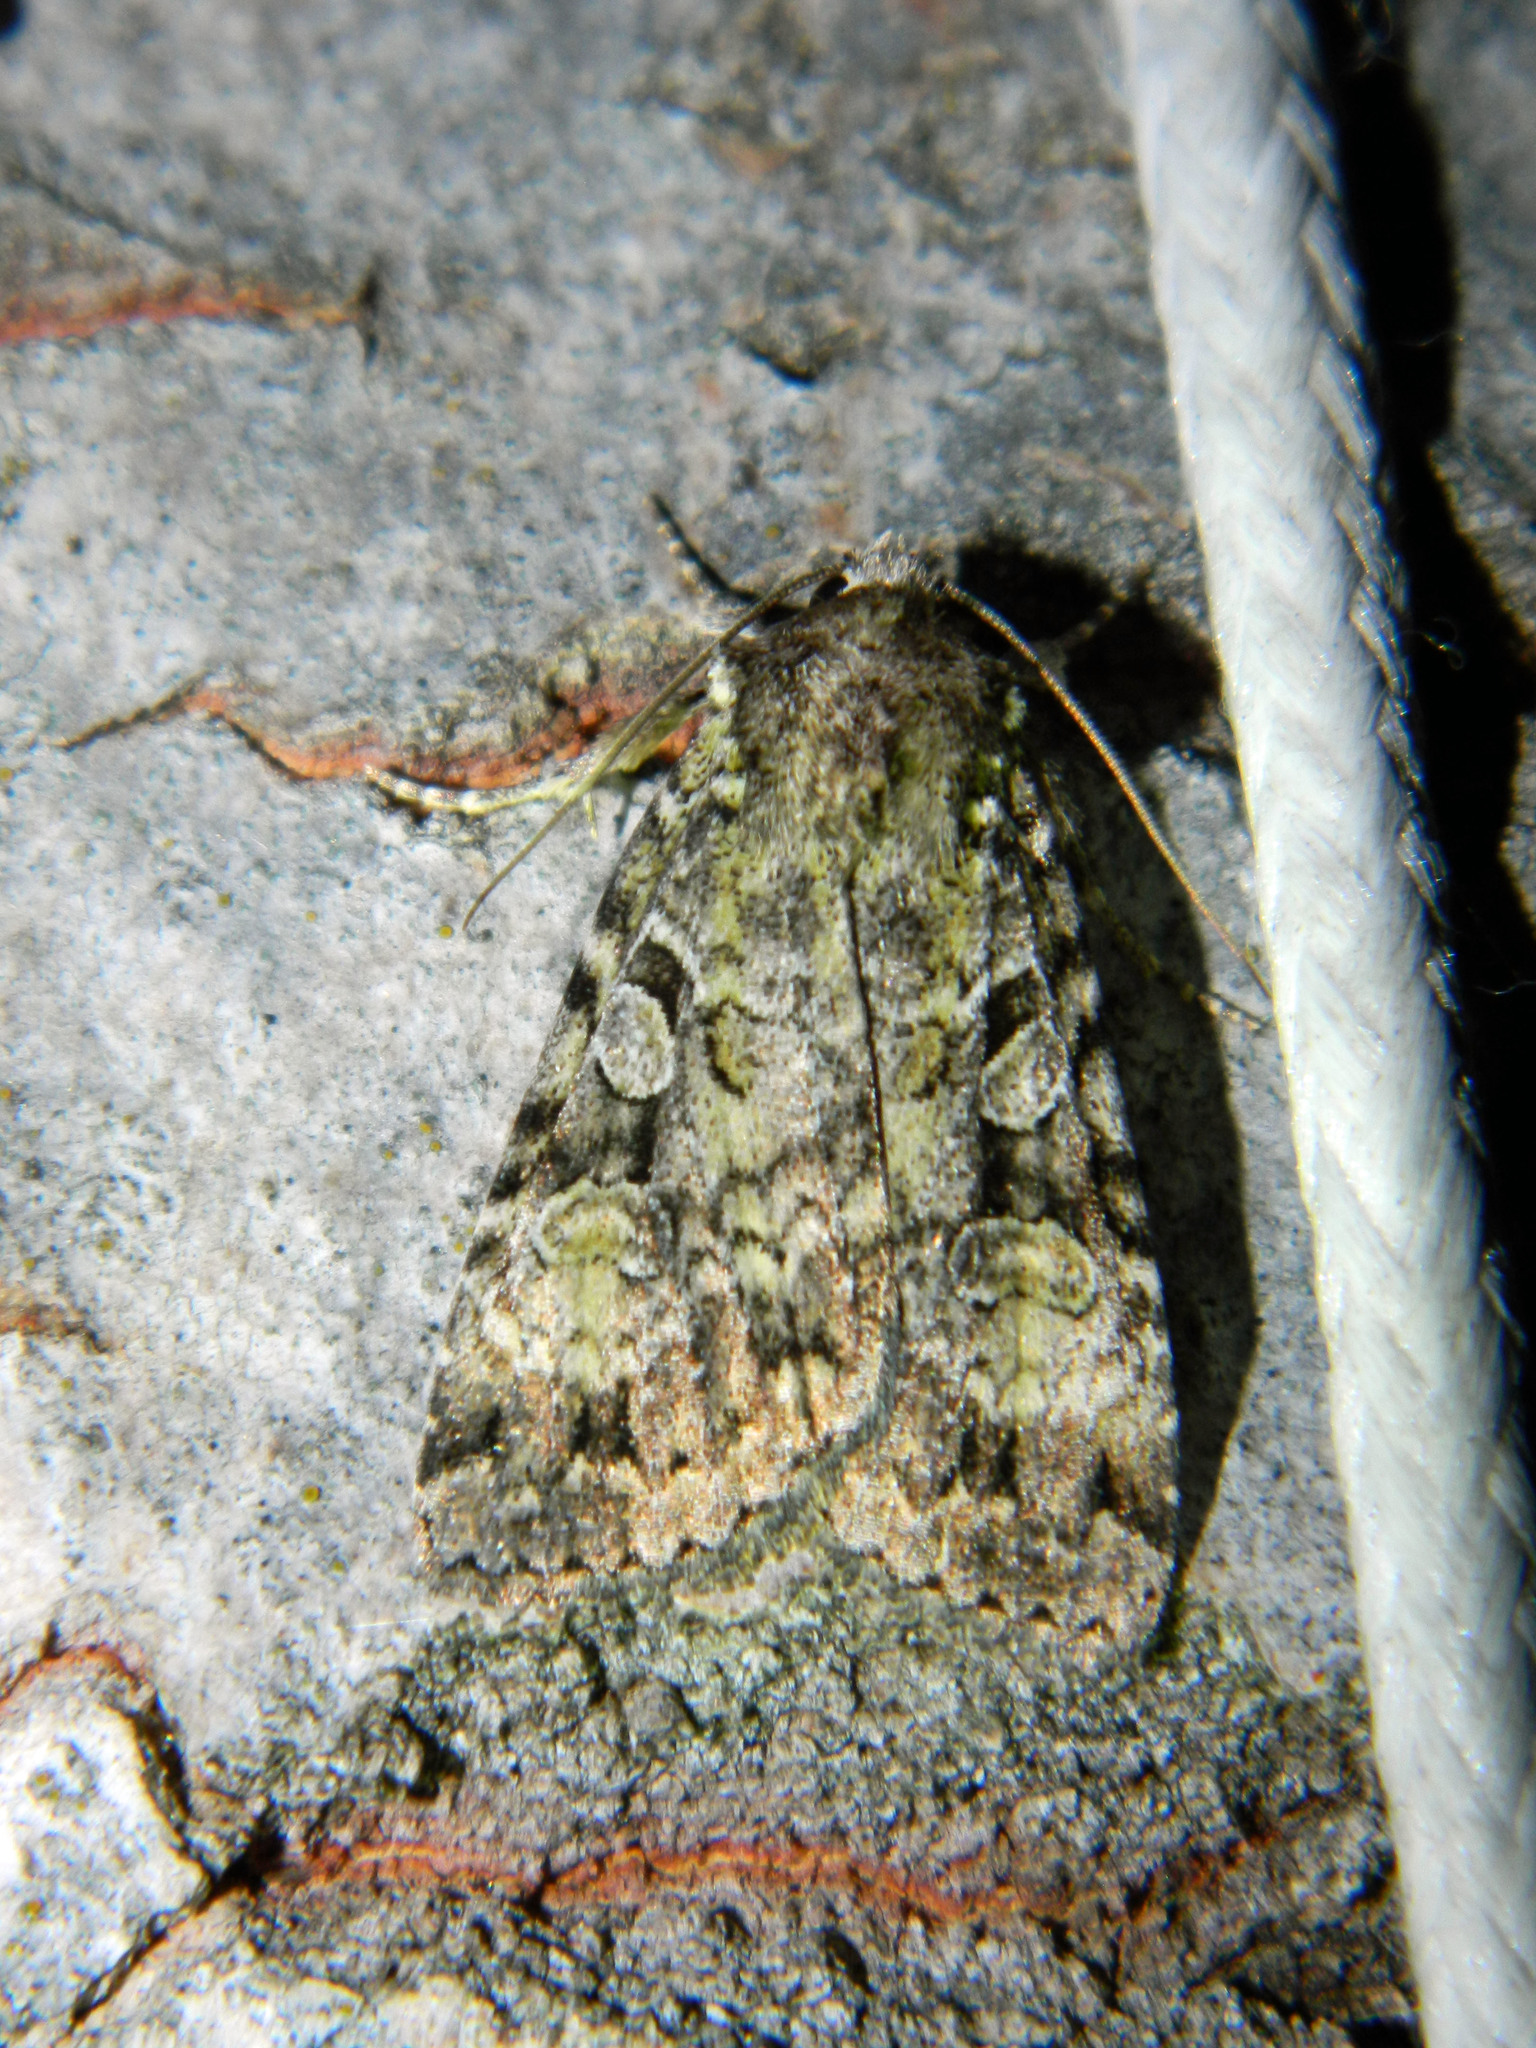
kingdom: Animalia
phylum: Arthropoda
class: Insecta
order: Lepidoptera
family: Noctuidae
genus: Anaplectoides
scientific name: Anaplectoides prasina
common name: Green arches
